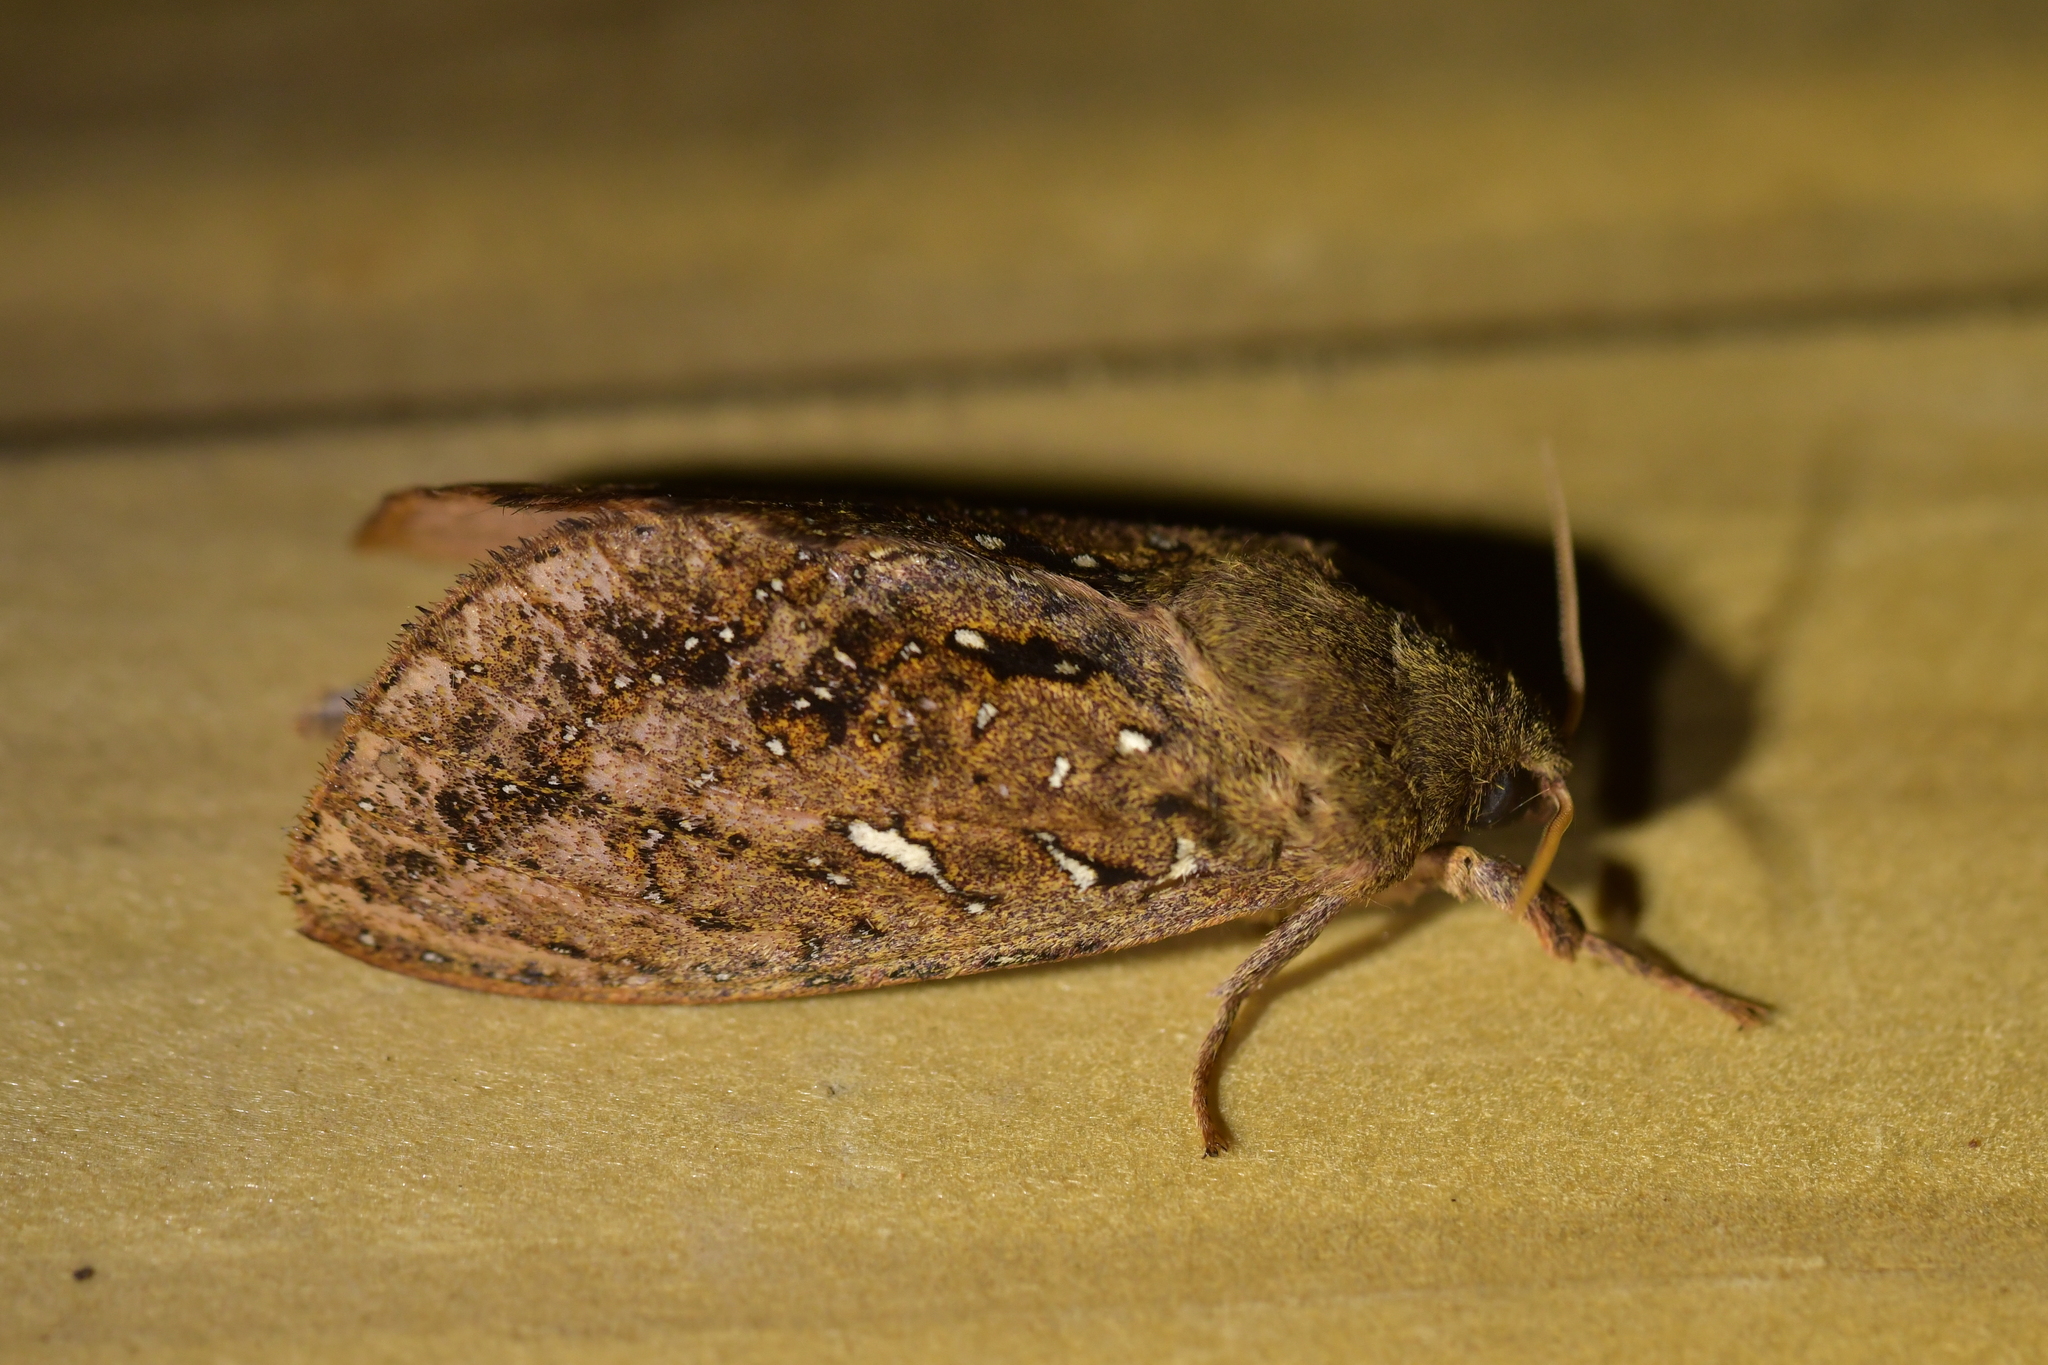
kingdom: Animalia
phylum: Arthropoda
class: Insecta
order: Lepidoptera
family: Hepialidae
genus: Dumbletonius
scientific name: Dumbletonius unimaculata
